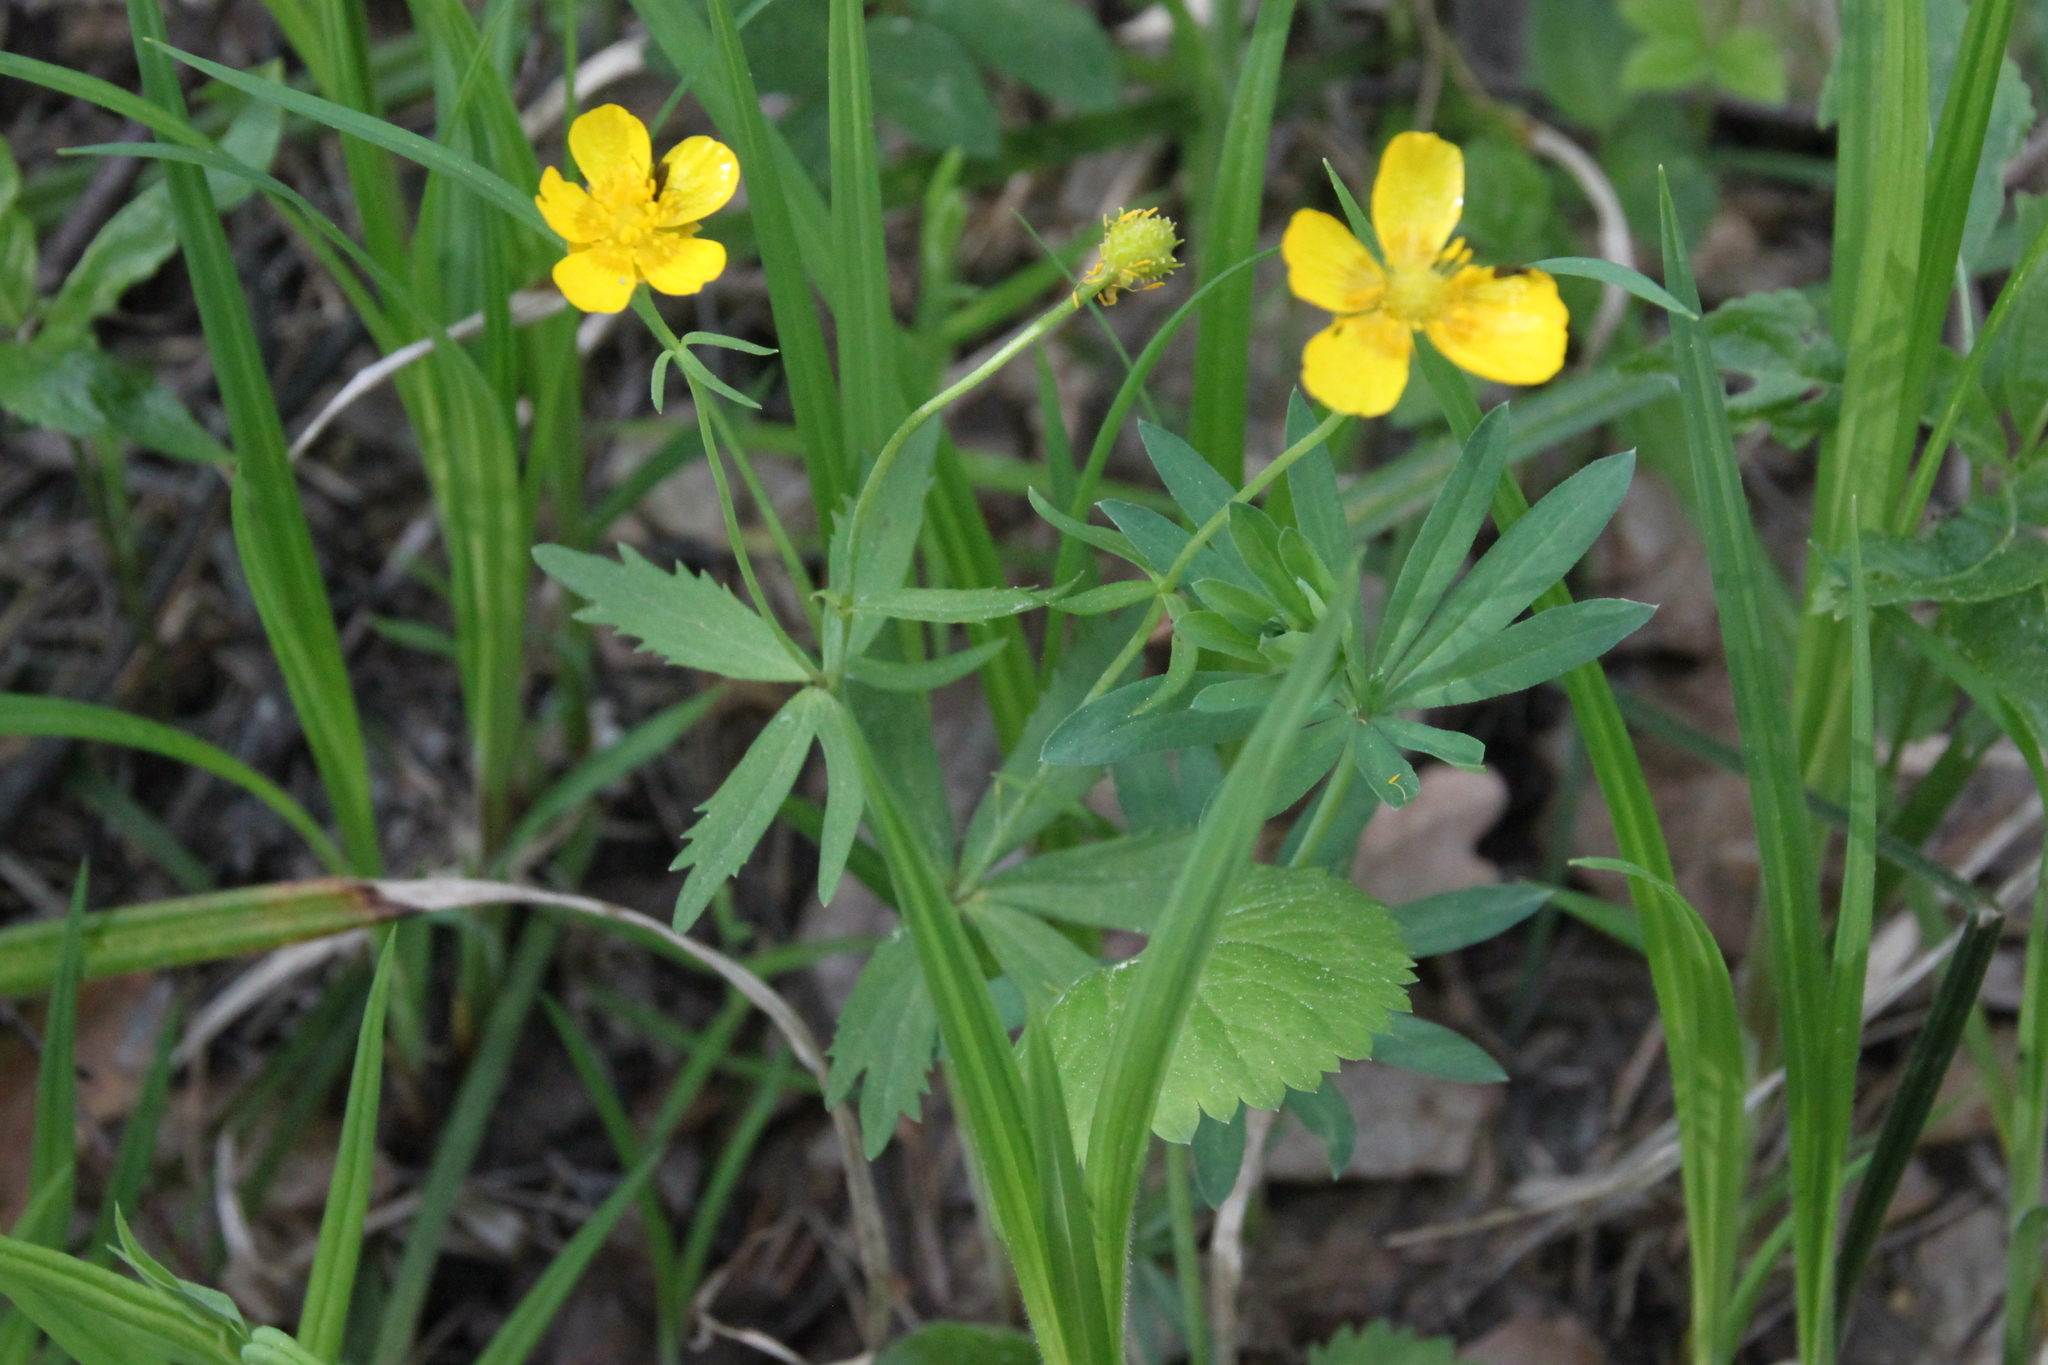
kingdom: Plantae
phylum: Tracheophyta
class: Magnoliopsida
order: Ranunculales
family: Ranunculaceae
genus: Ranunculus
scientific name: Ranunculus cassubicus
